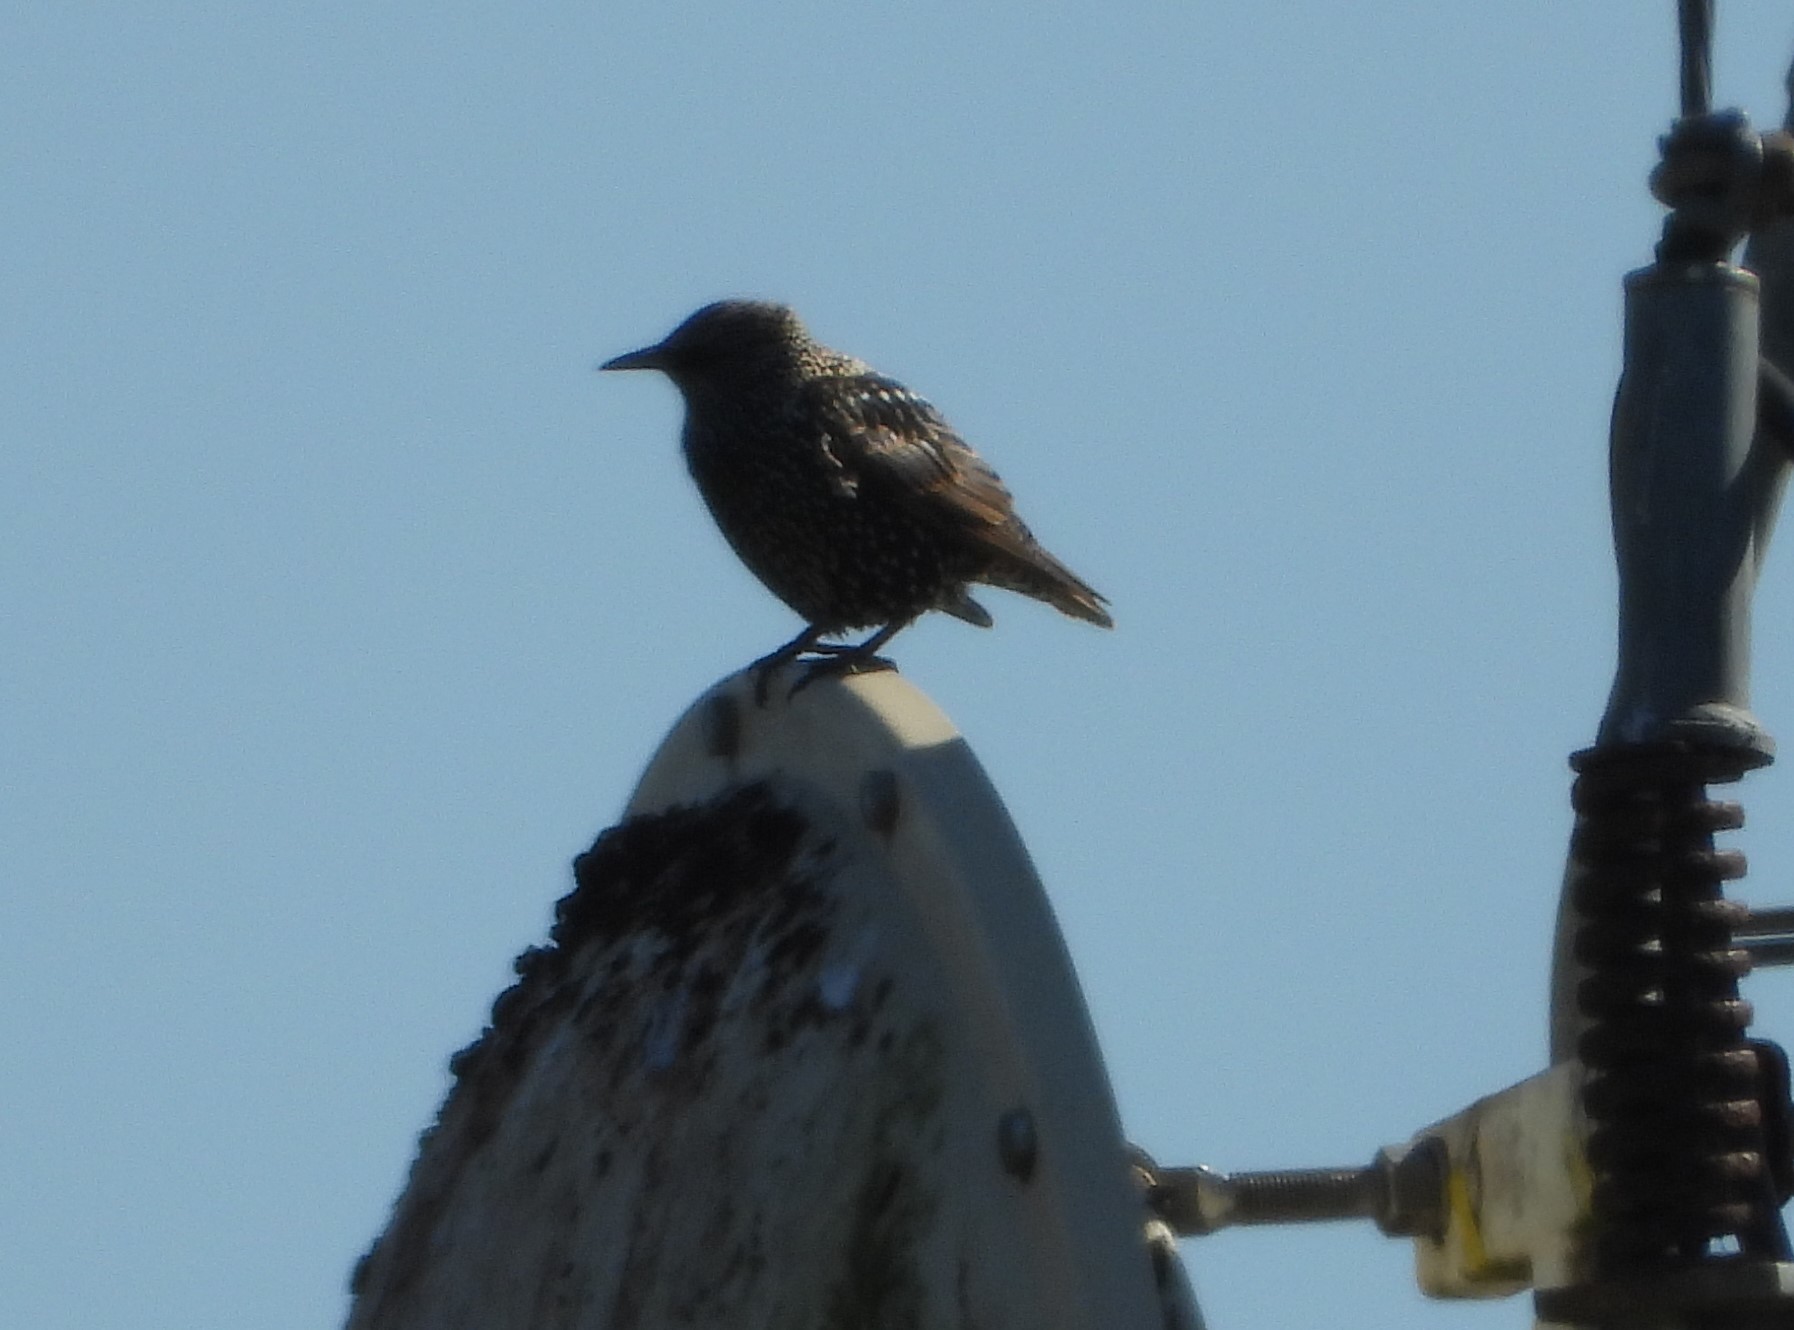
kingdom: Animalia
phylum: Chordata
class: Aves
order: Passeriformes
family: Sturnidae
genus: Sturnus
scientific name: Sturnus vulgaris
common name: Common starling
